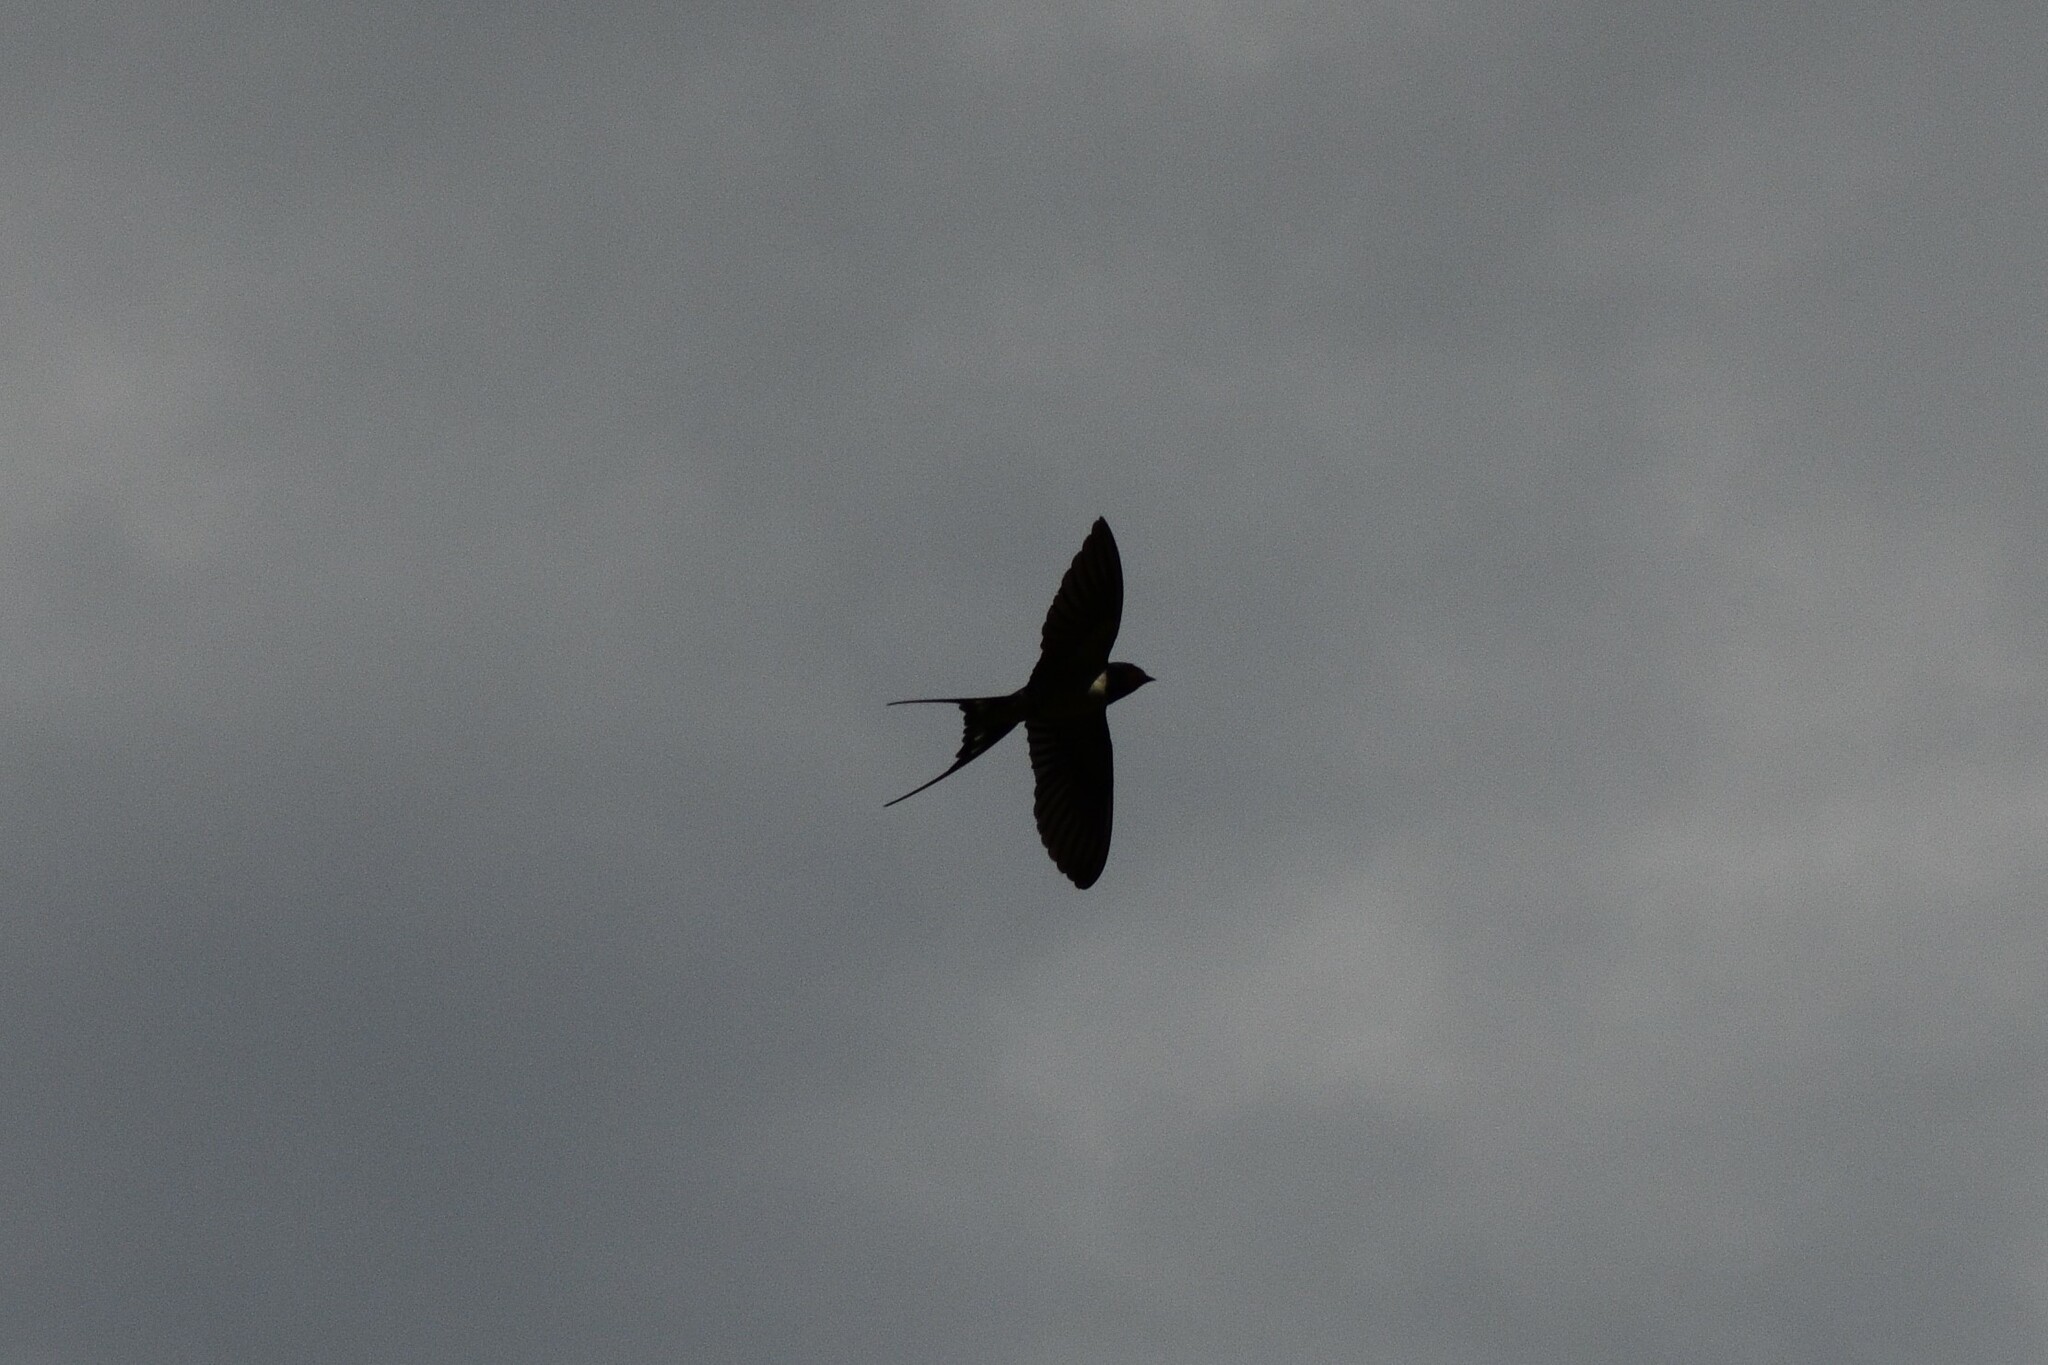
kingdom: Animalia
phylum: Chordata
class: Aves
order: Passeriformes
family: Hirundinidae
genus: Hirundo
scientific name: Hirundo rustica
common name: Barn swallow
